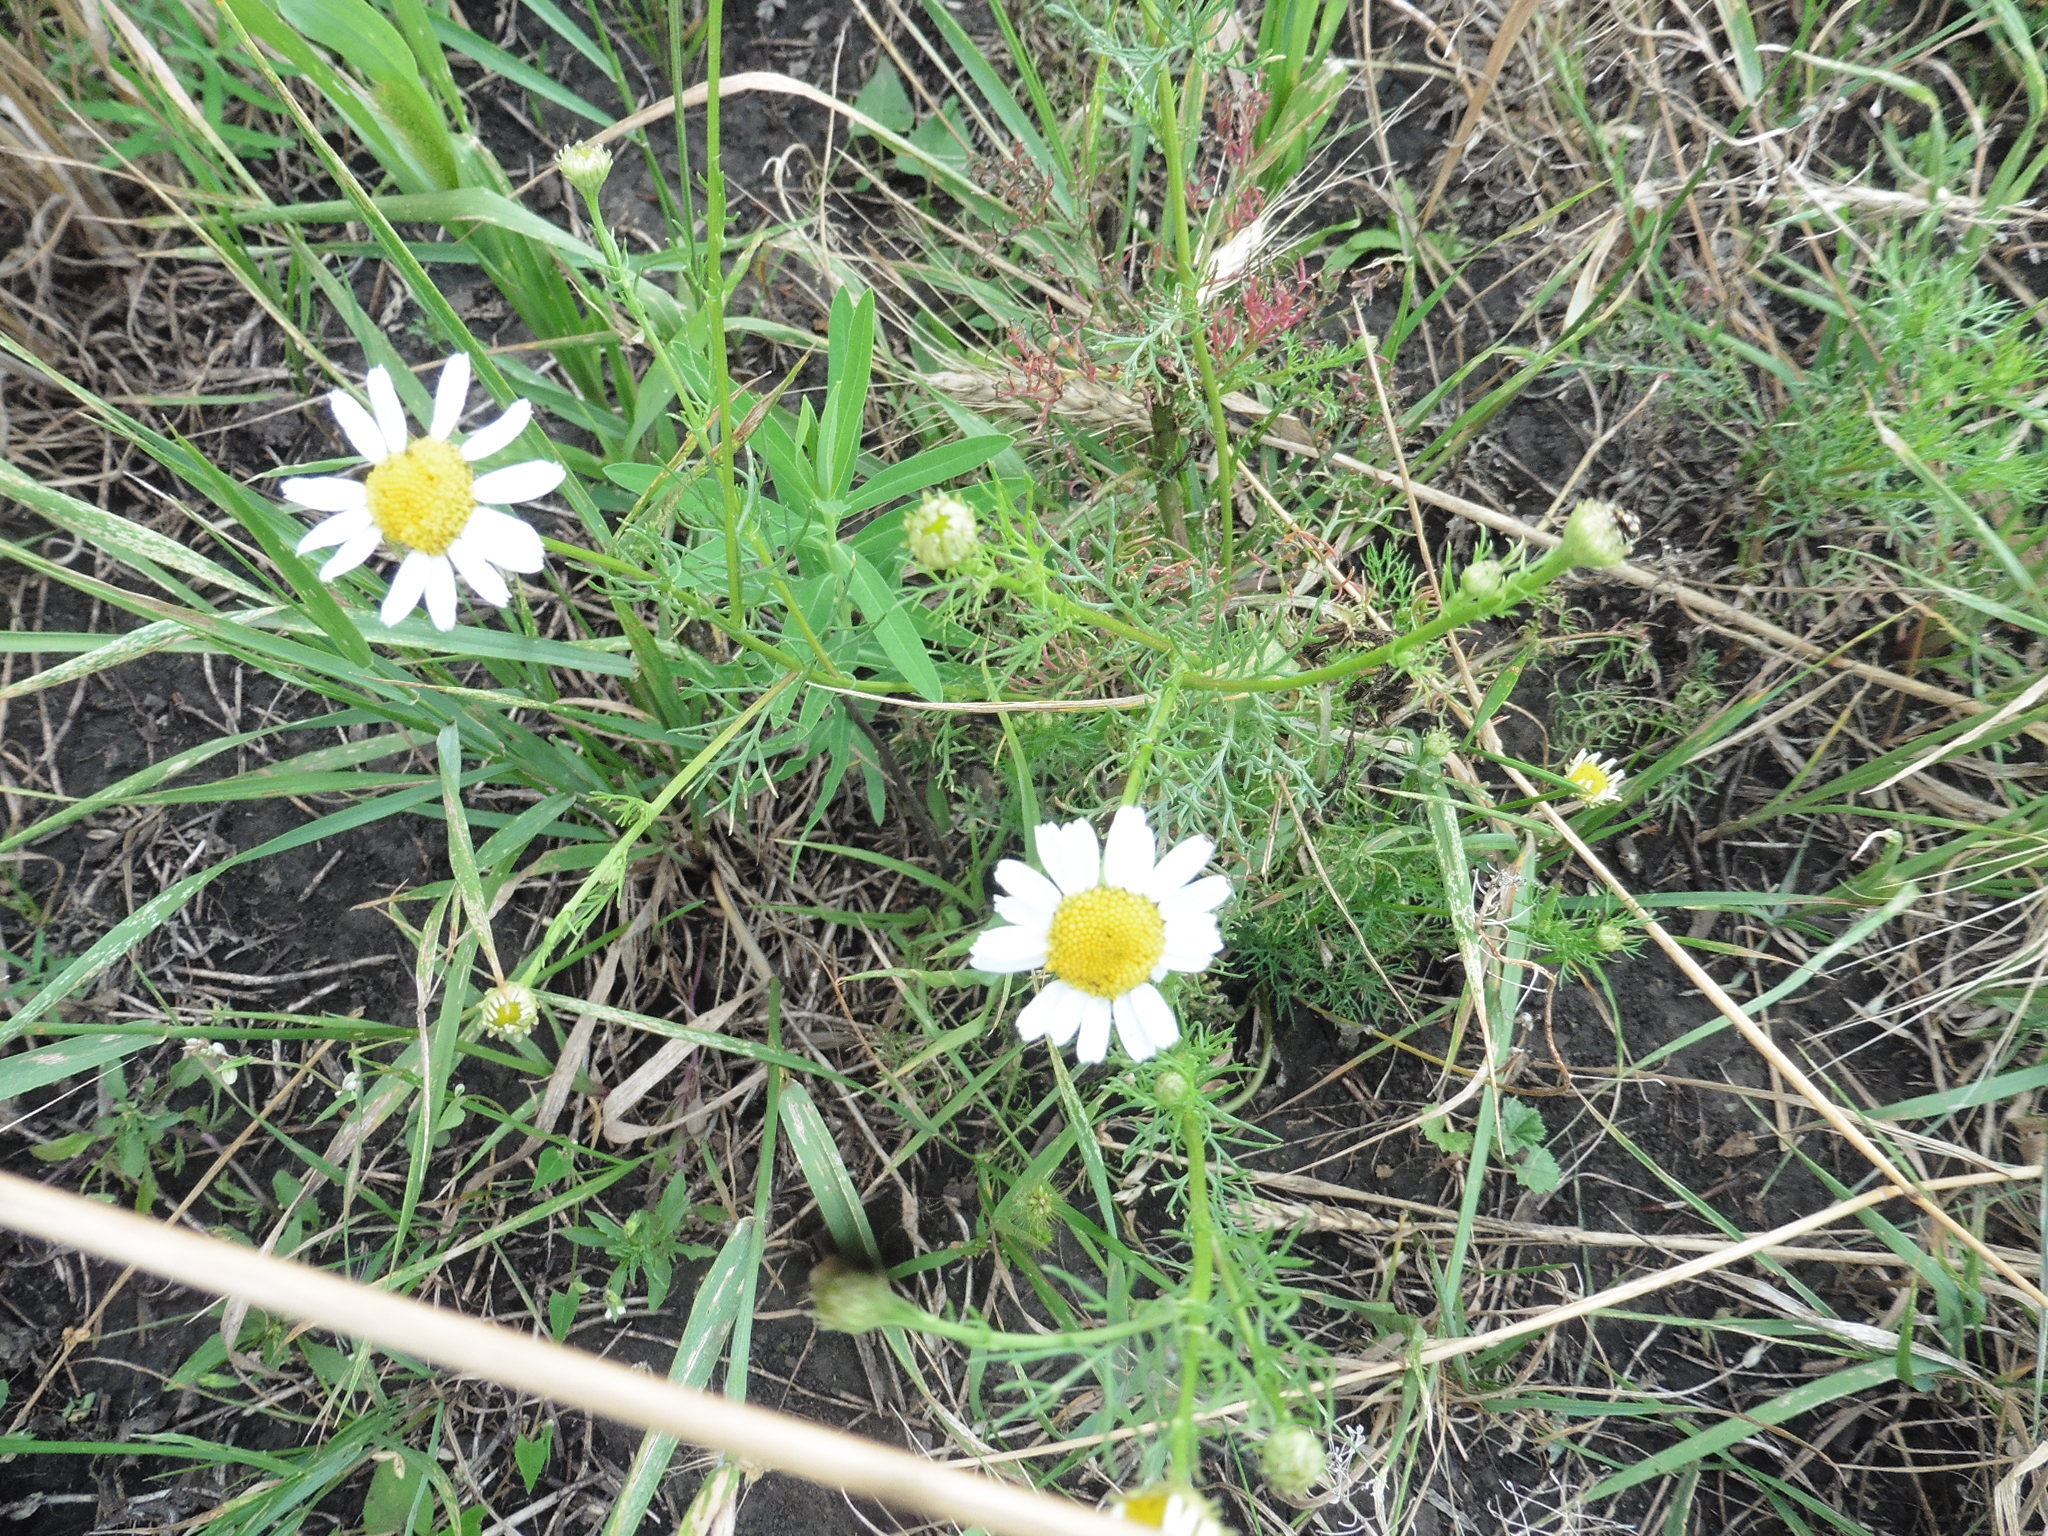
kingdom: Plantae
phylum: Tracheophyta
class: Magnoliopsida
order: Asterales
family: Asteraceae
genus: Tripleurospermum
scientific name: Tripleurospermum inodorum
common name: Scentless mayweed
